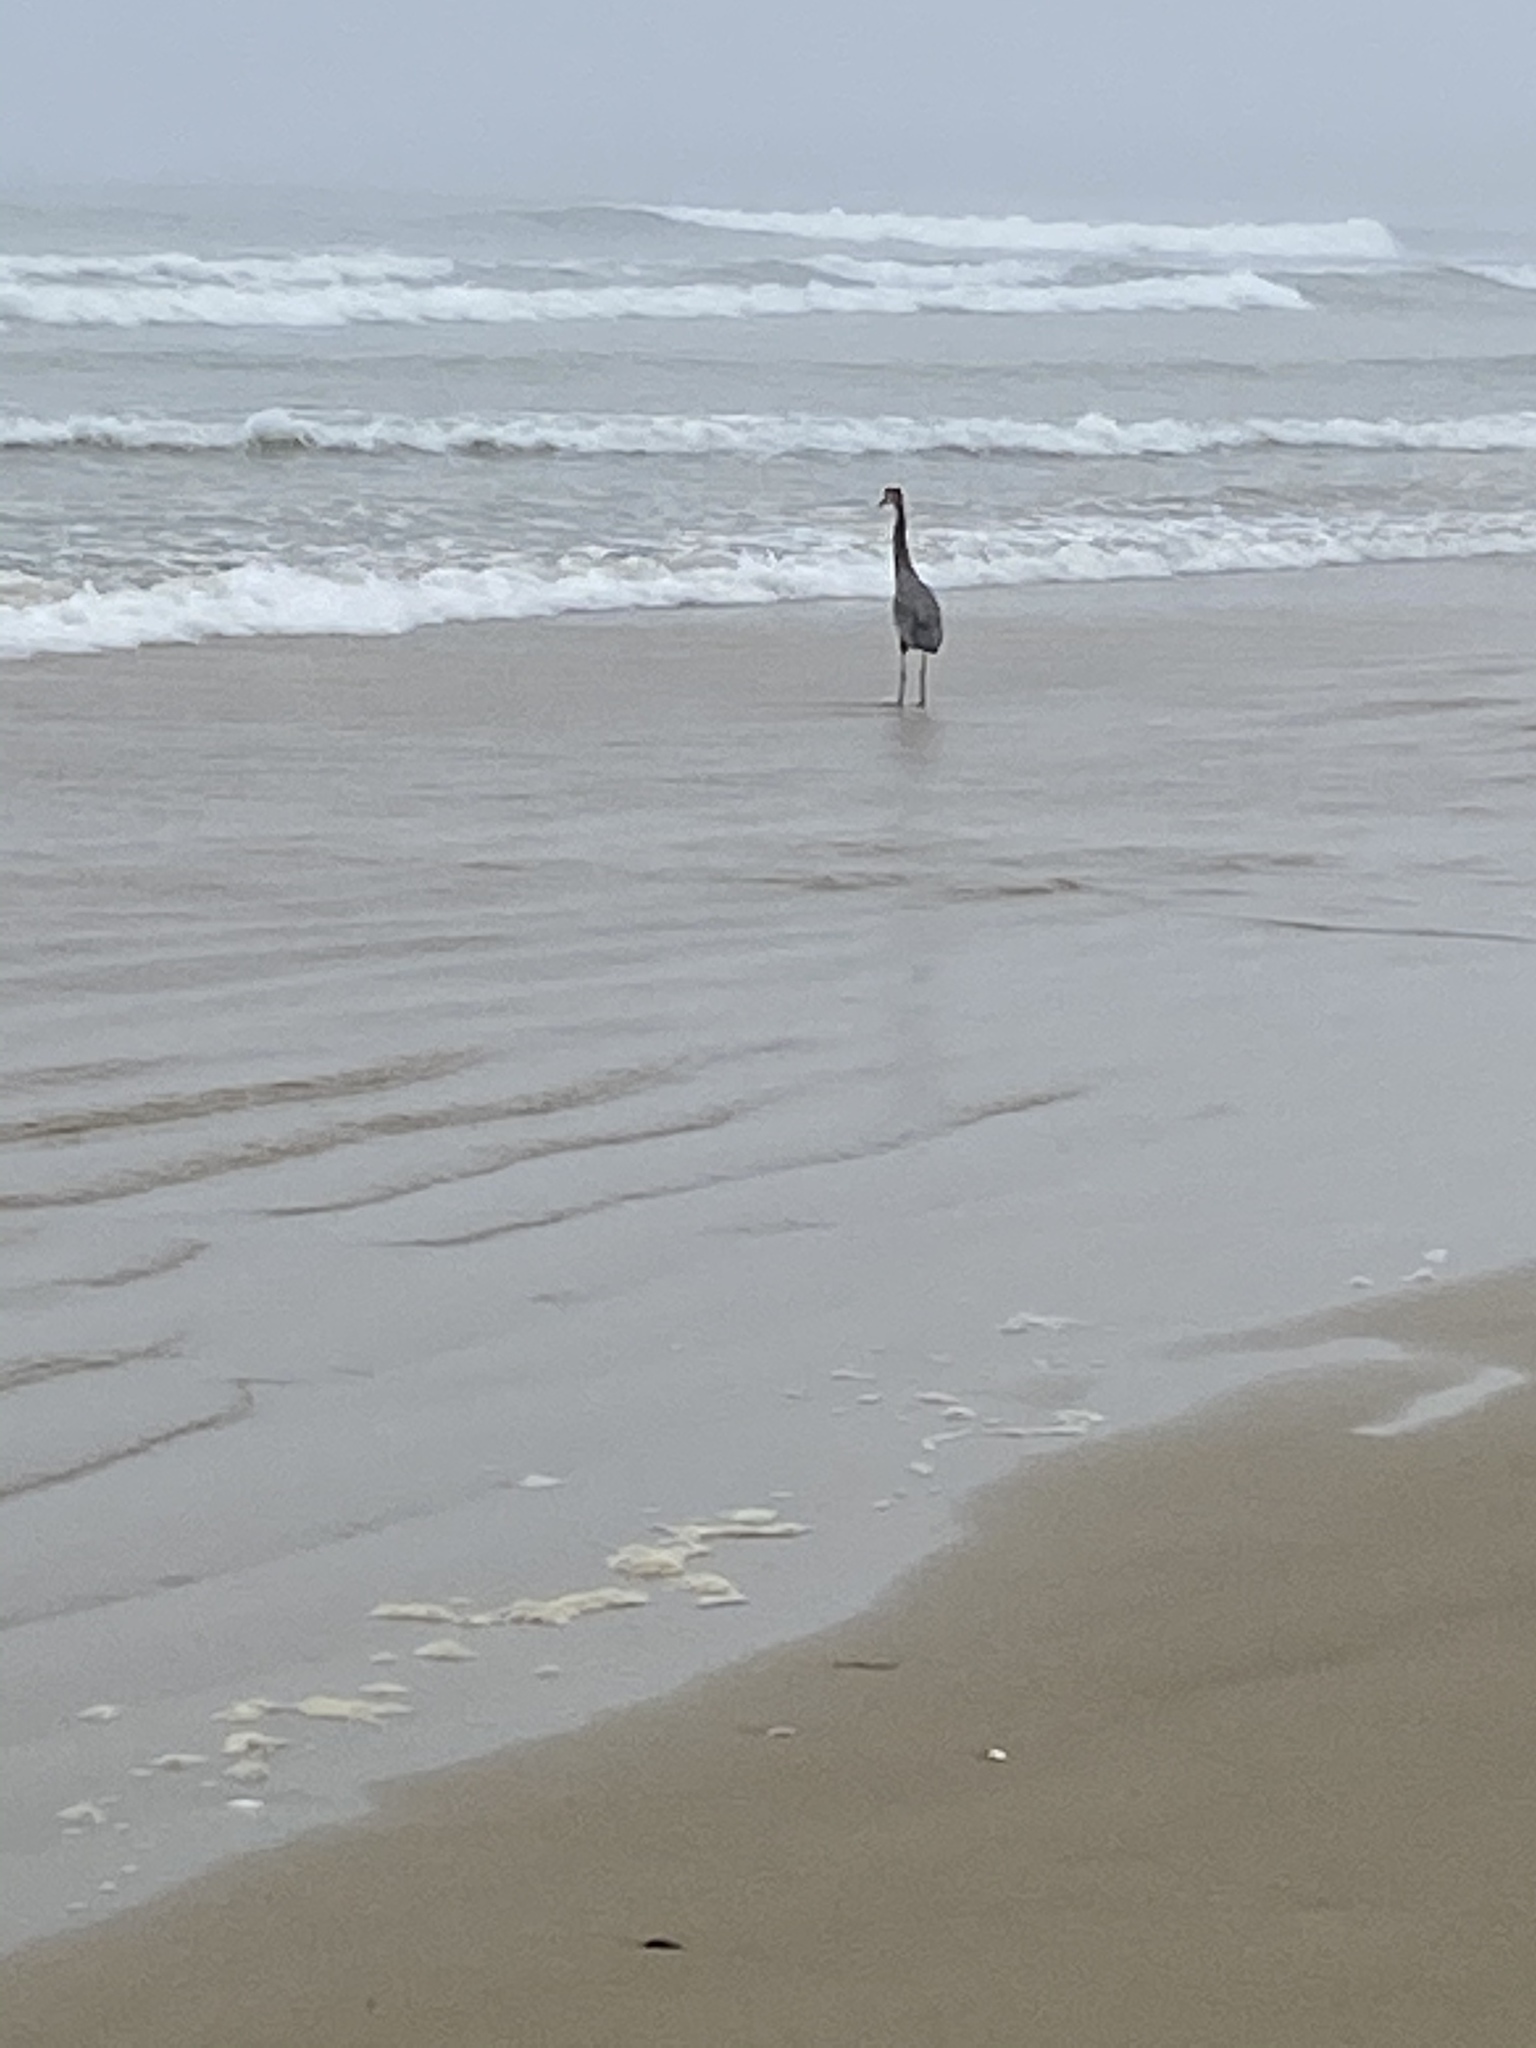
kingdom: Animalia
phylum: Chordata
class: Aves
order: Pelecaniformes
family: Ardeidae
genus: Ardea
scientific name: Ardea herodias
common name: Great blue heron
